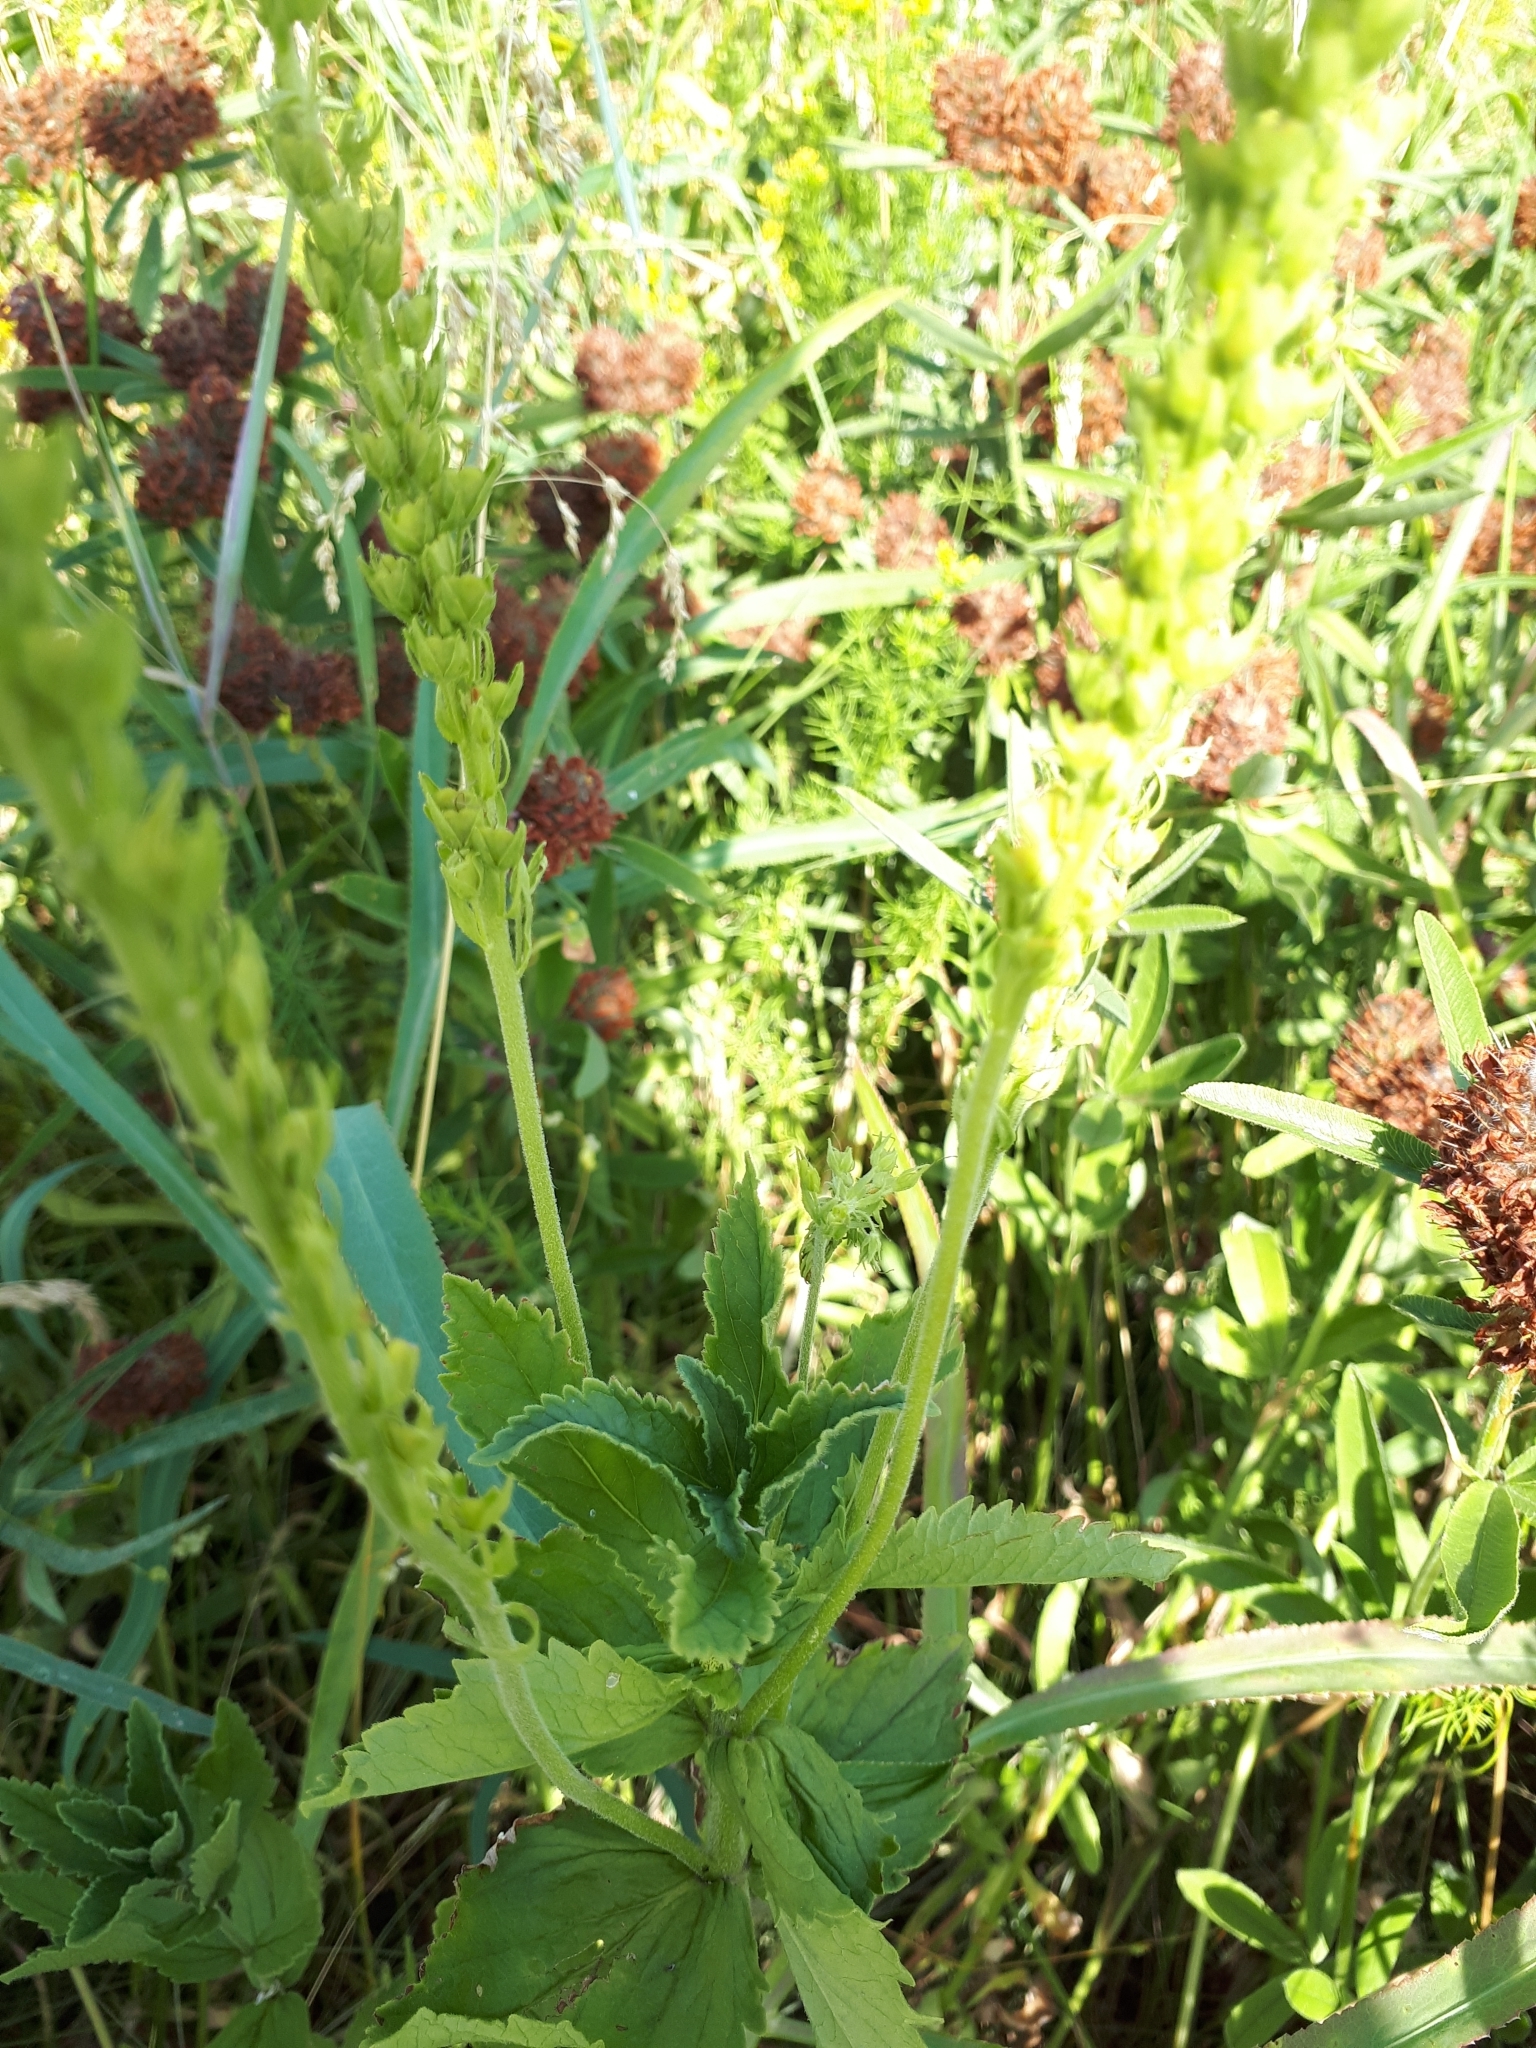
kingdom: Plantae
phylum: Tracheophyta
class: Magnoliopsida
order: Lamiales
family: Plantaginaceae
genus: Veronica
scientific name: Veronica teucrium
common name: Large speedwell
